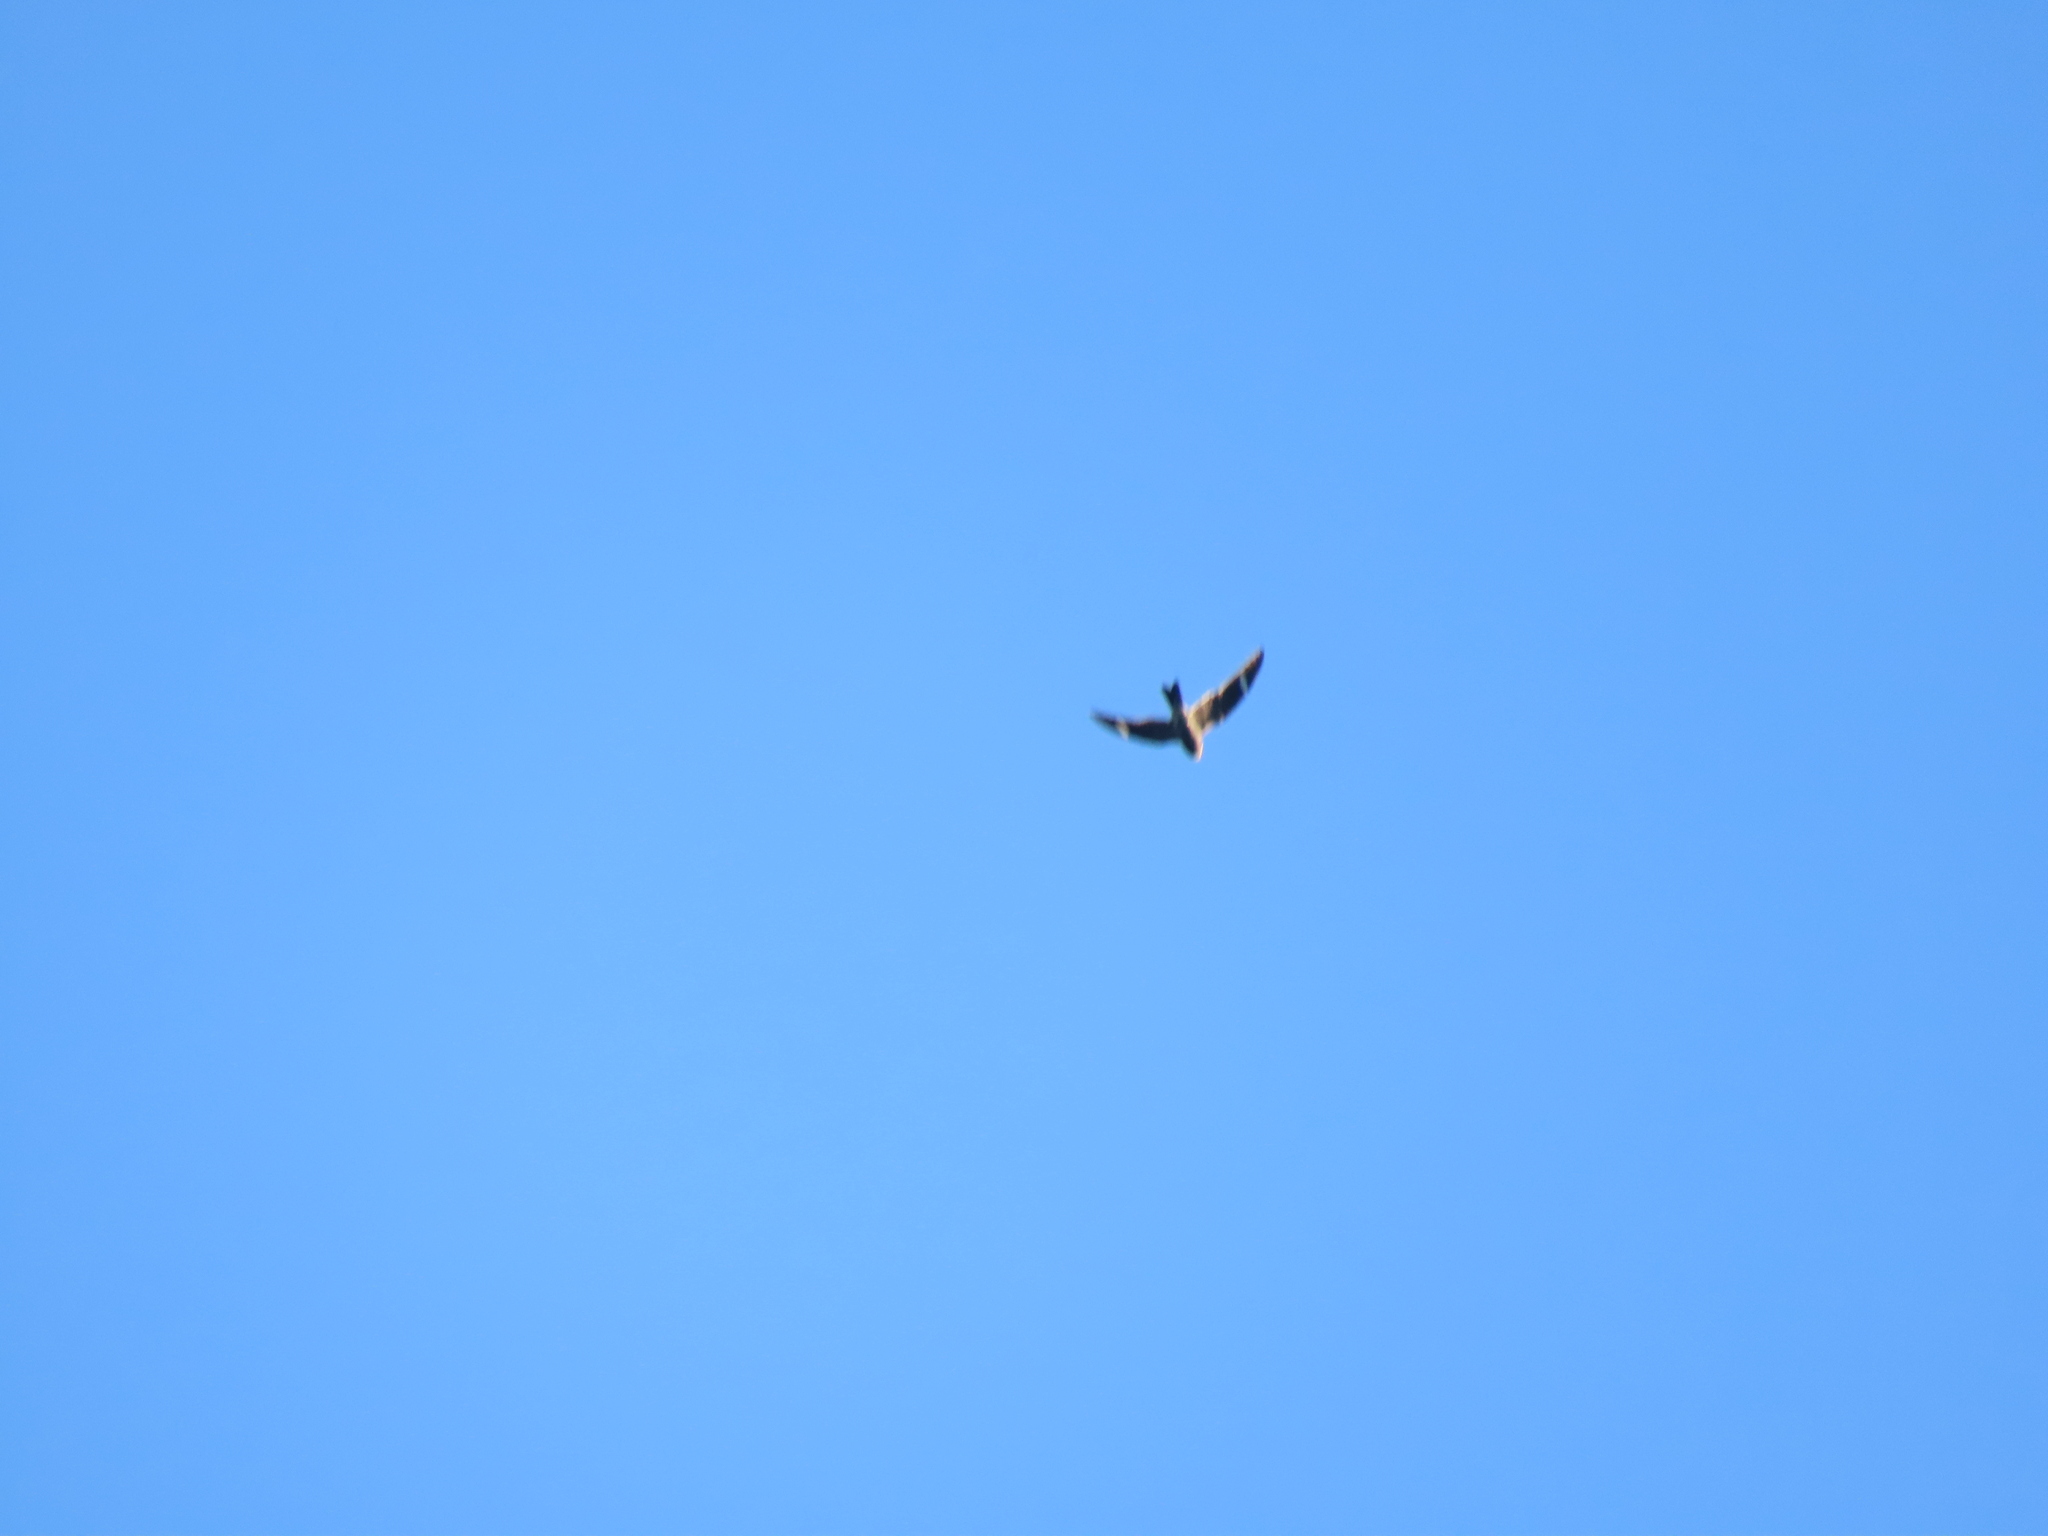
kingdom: Animalia
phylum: Chordata
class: Aves
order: Caprimulgiformes
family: Caprimulgidae
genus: Chordeiles
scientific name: Chordeiles minor
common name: Common nighthawk
